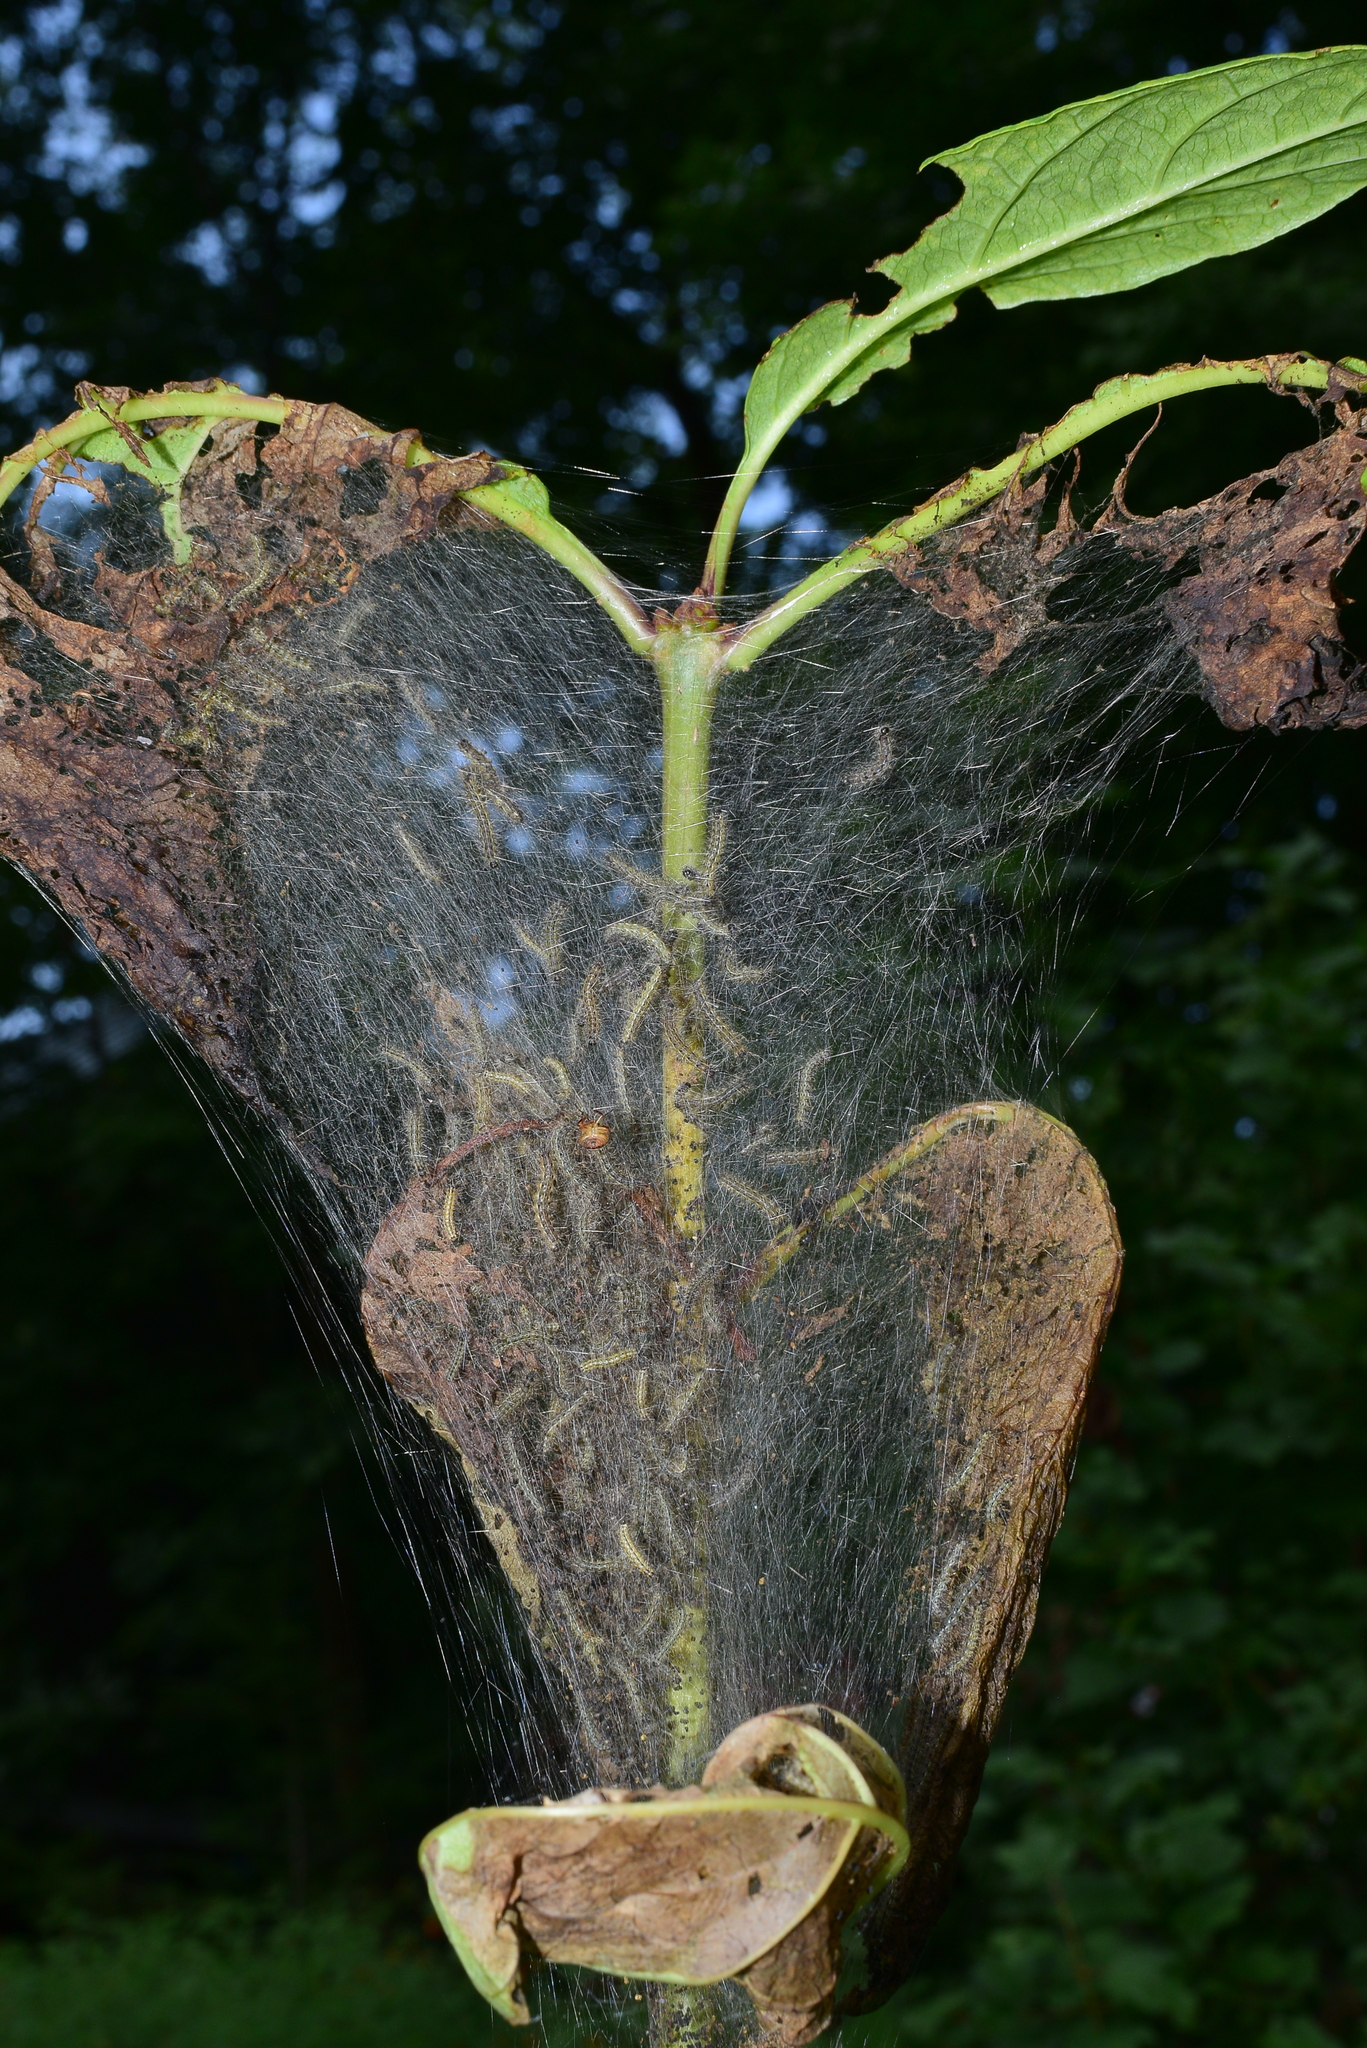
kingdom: Animalia
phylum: Arthropoda
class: Insecta
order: Lepidoptera
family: Erebidae
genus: Hyphantria
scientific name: Hyphantria cunea
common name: American white moth
